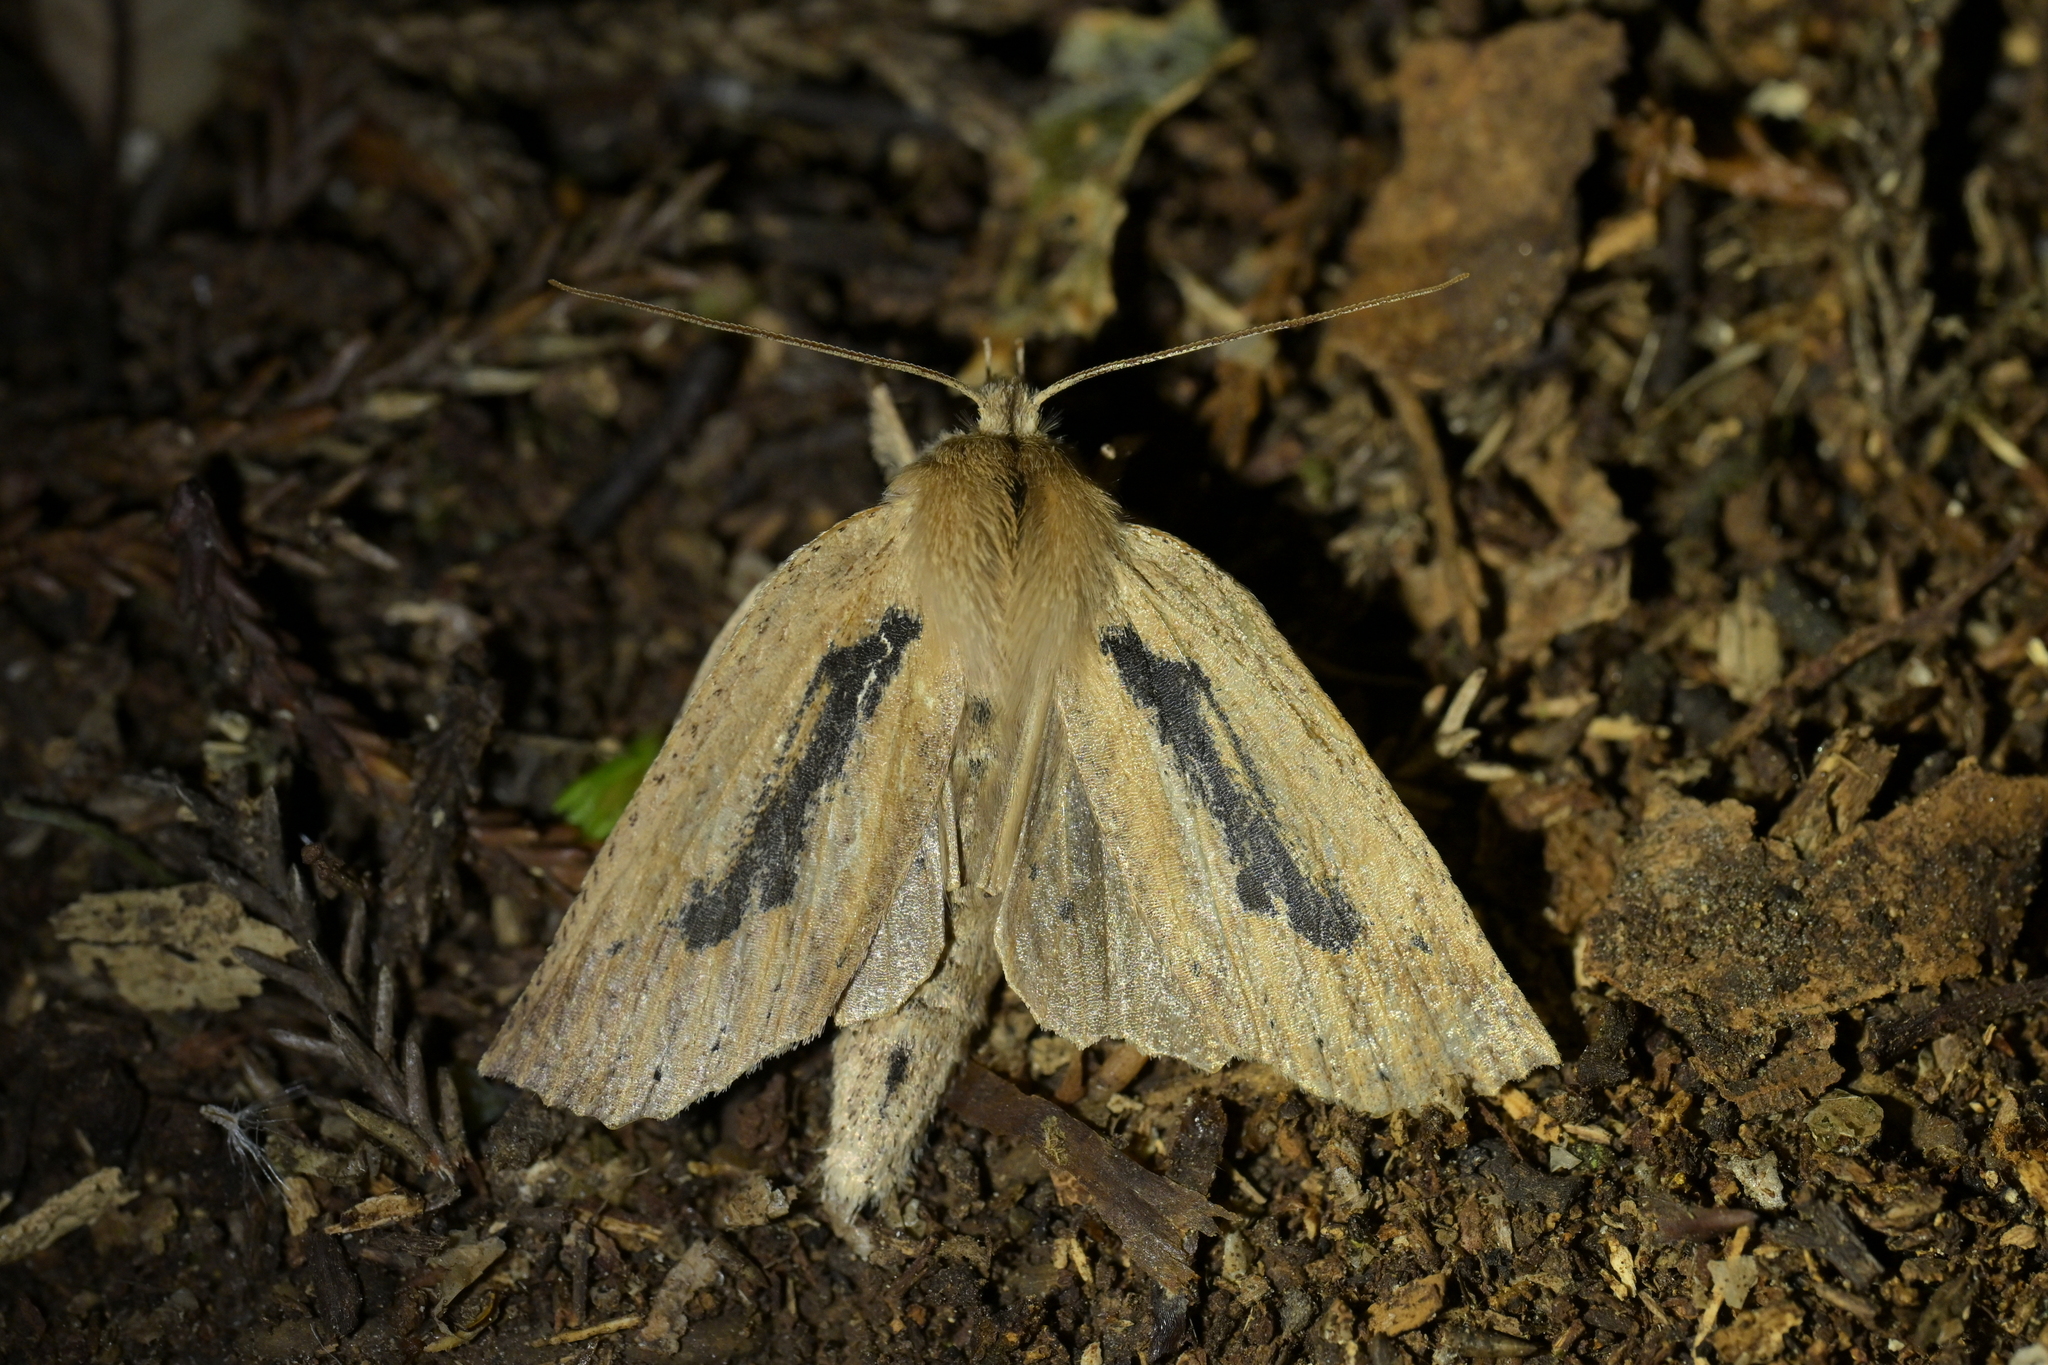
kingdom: Animalia
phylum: Arthropoda
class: Insecta
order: Lepidoptera
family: Geometridae
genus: Declana
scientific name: Declana leptomera
